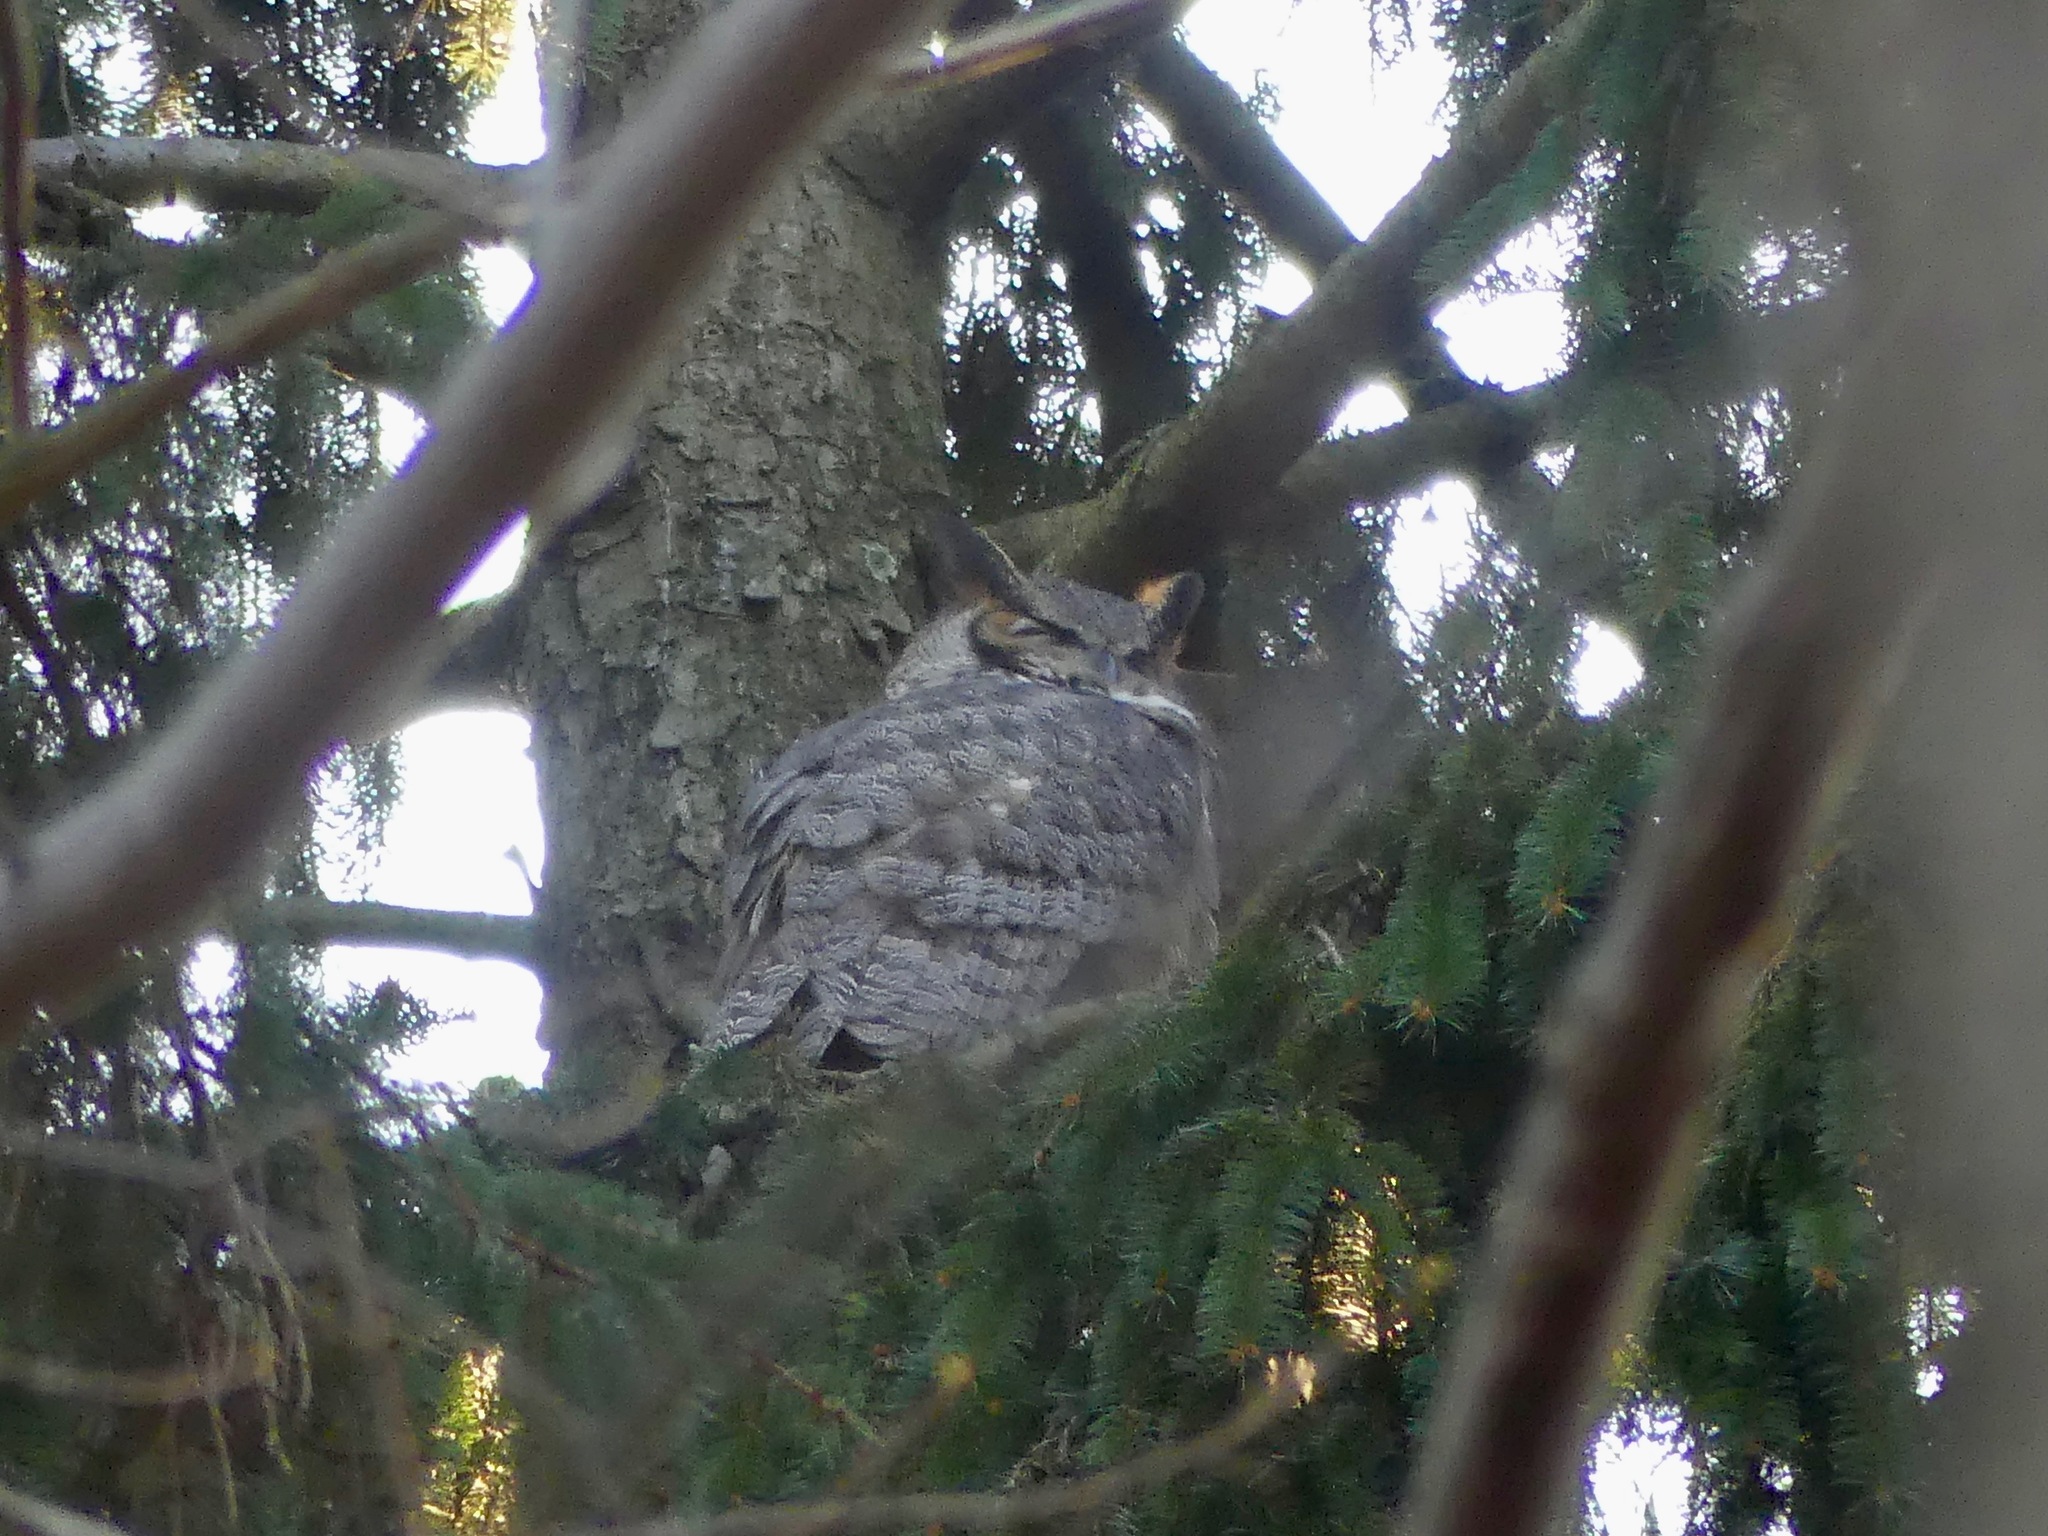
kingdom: Animalia
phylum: Chordata
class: Aves
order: Strigiformes
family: Strigidae
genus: Bubo
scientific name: Bubo virginianus
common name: Great horned owl
